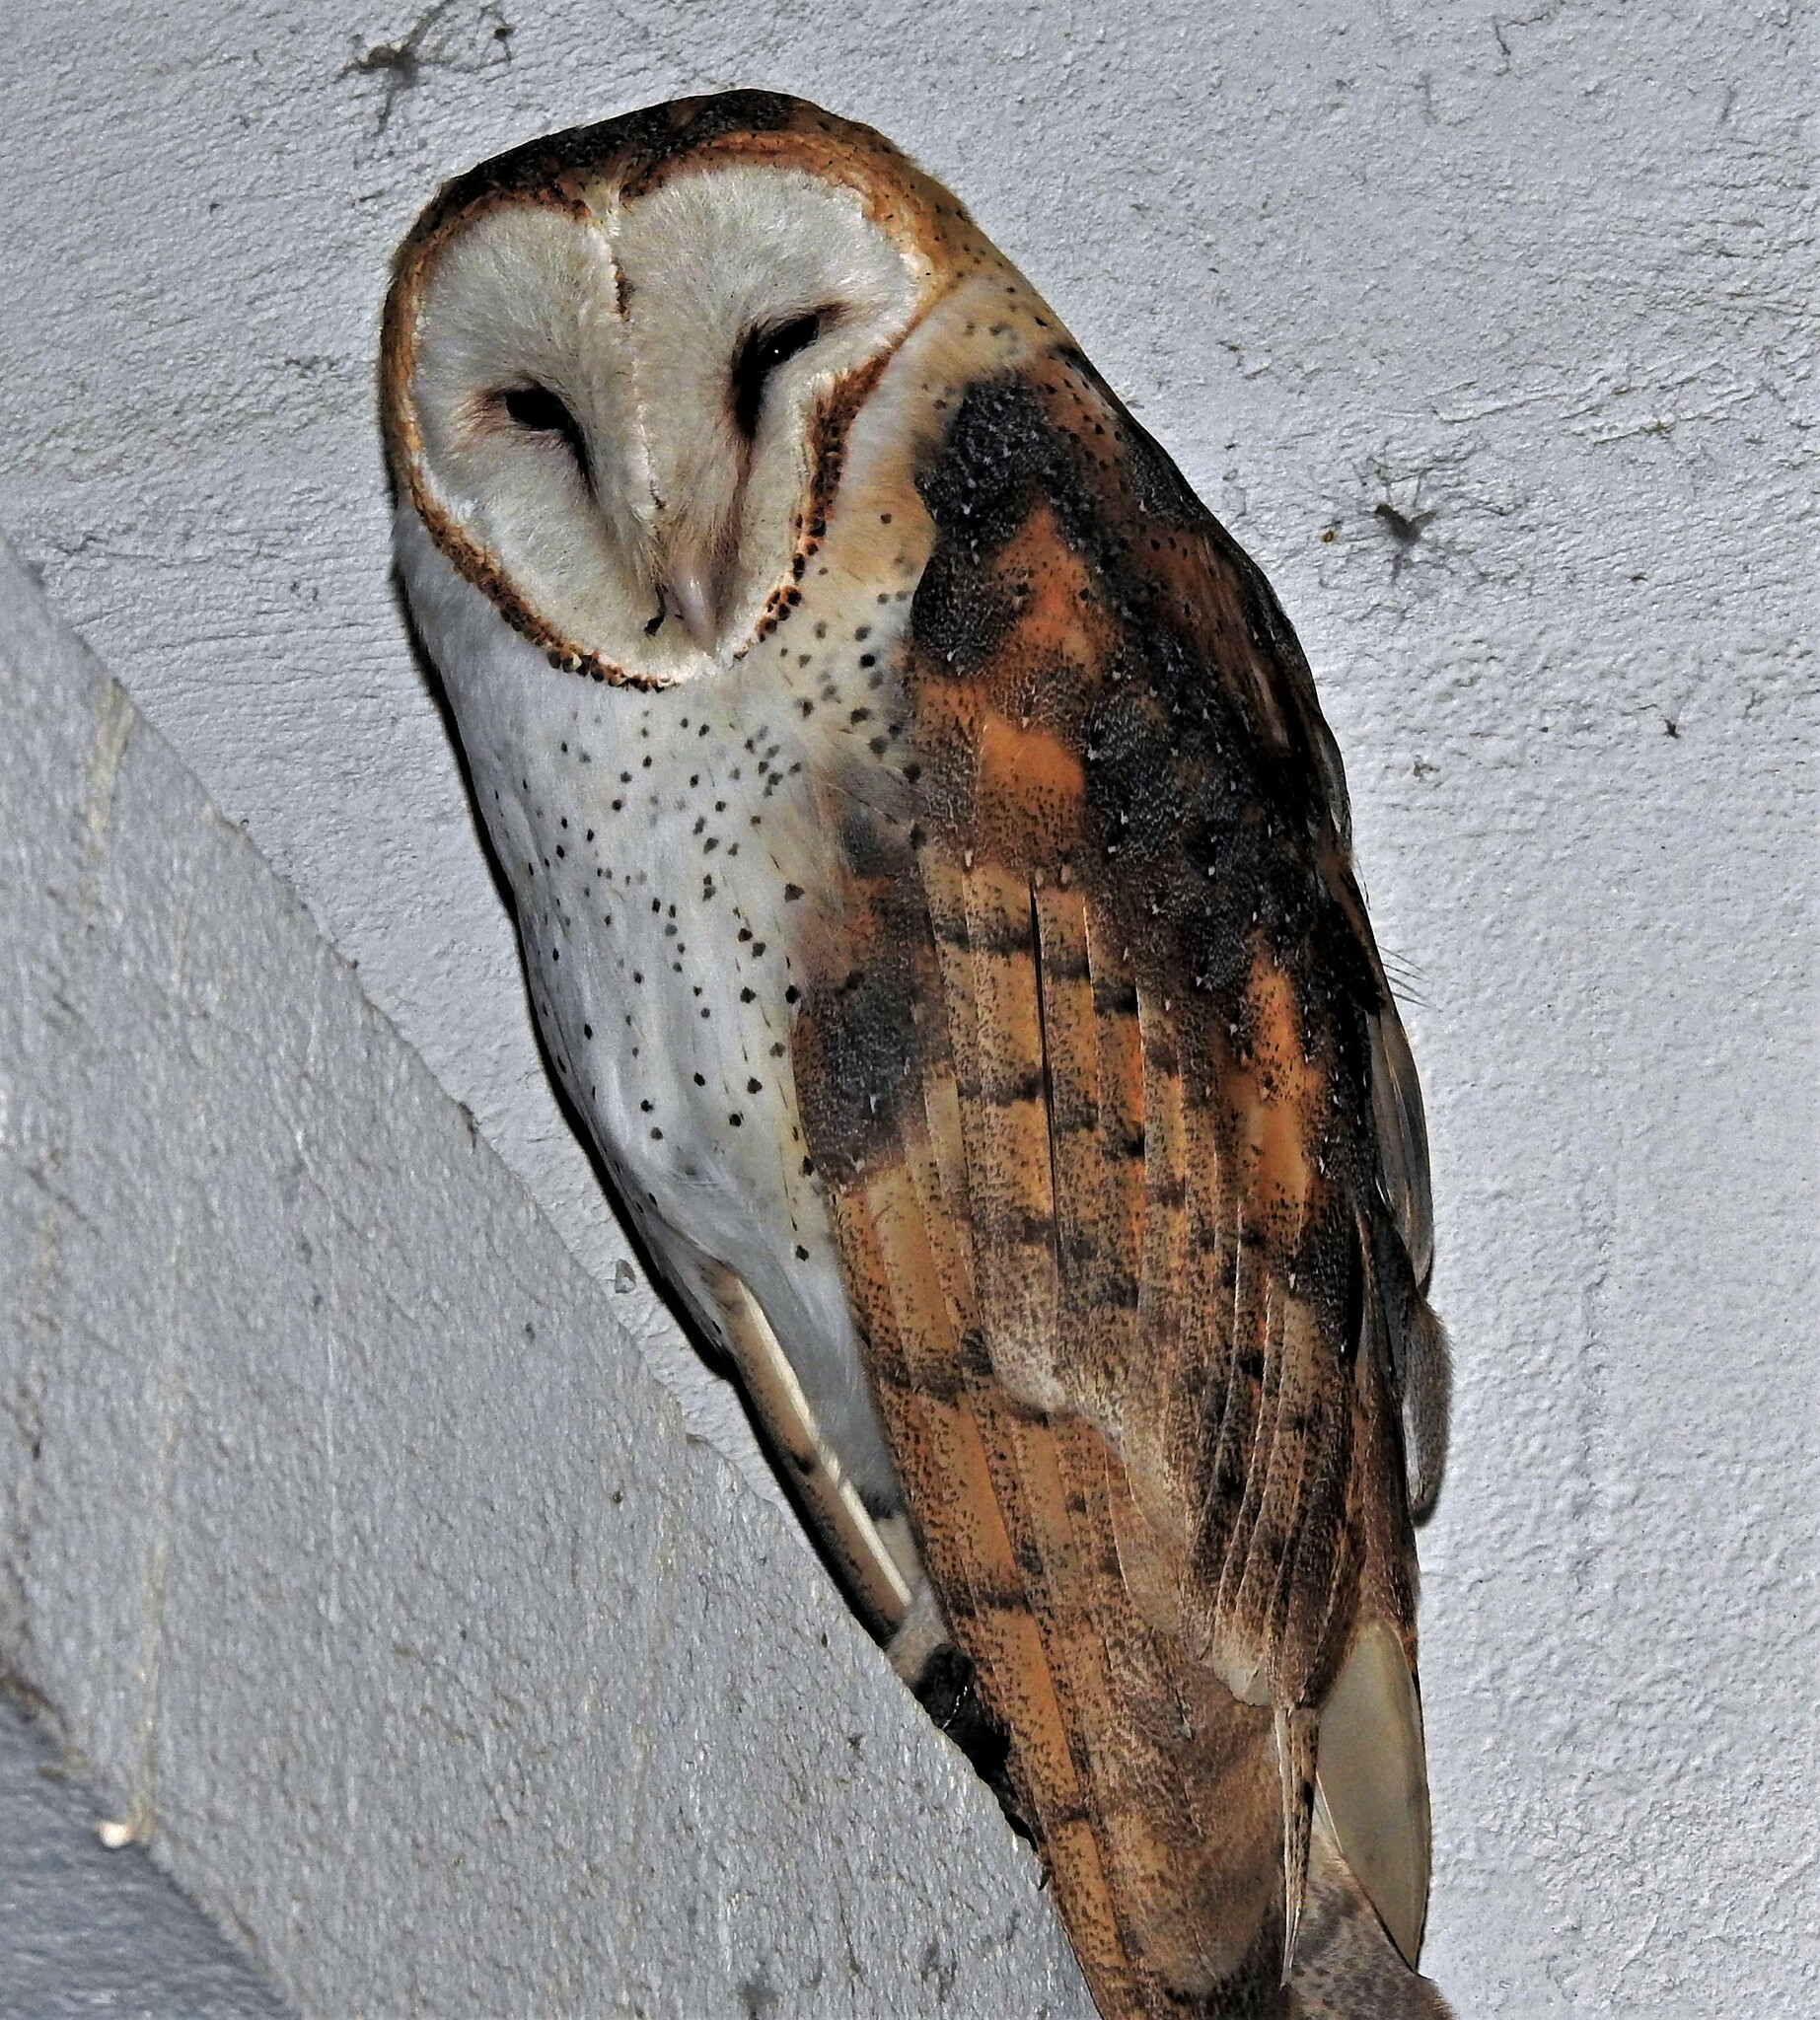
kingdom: Animalia
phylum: Chordata
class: Aves
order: Strigiformes
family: Tytonidae
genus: Tyto
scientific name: Tyto alba
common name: Barn owl
